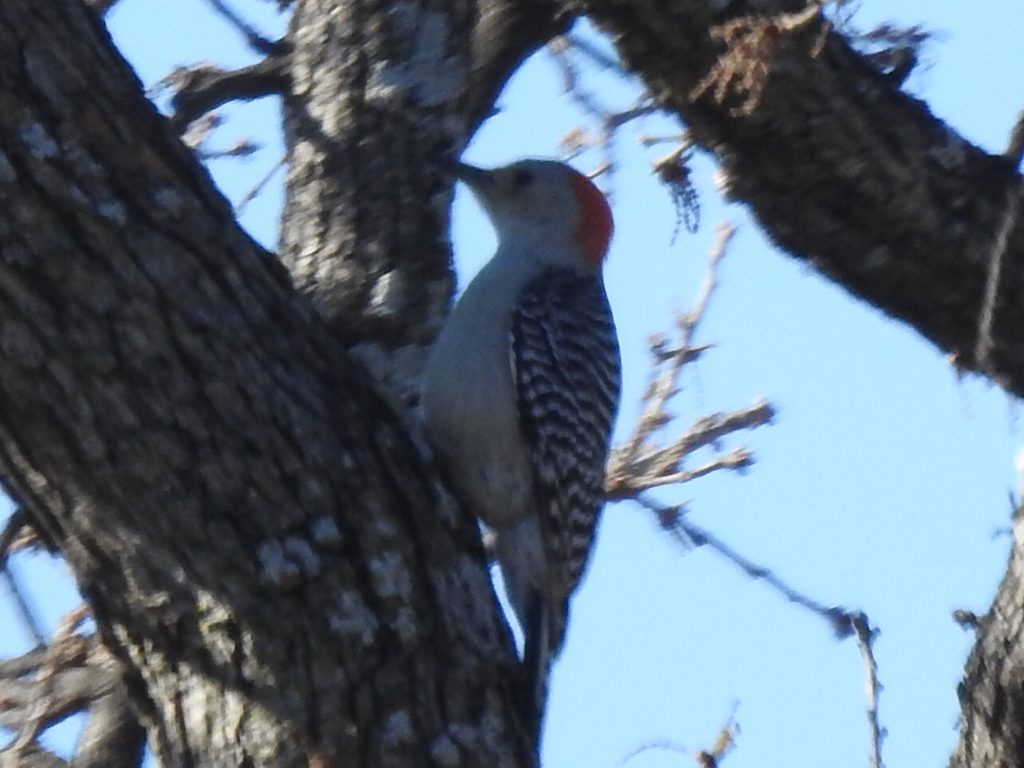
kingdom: Animalia
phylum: Chordata
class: Aves
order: Piciformes
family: Picidae
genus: Melanerpes
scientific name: Melanerpes carolinus
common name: Red-bellied woodpecker
